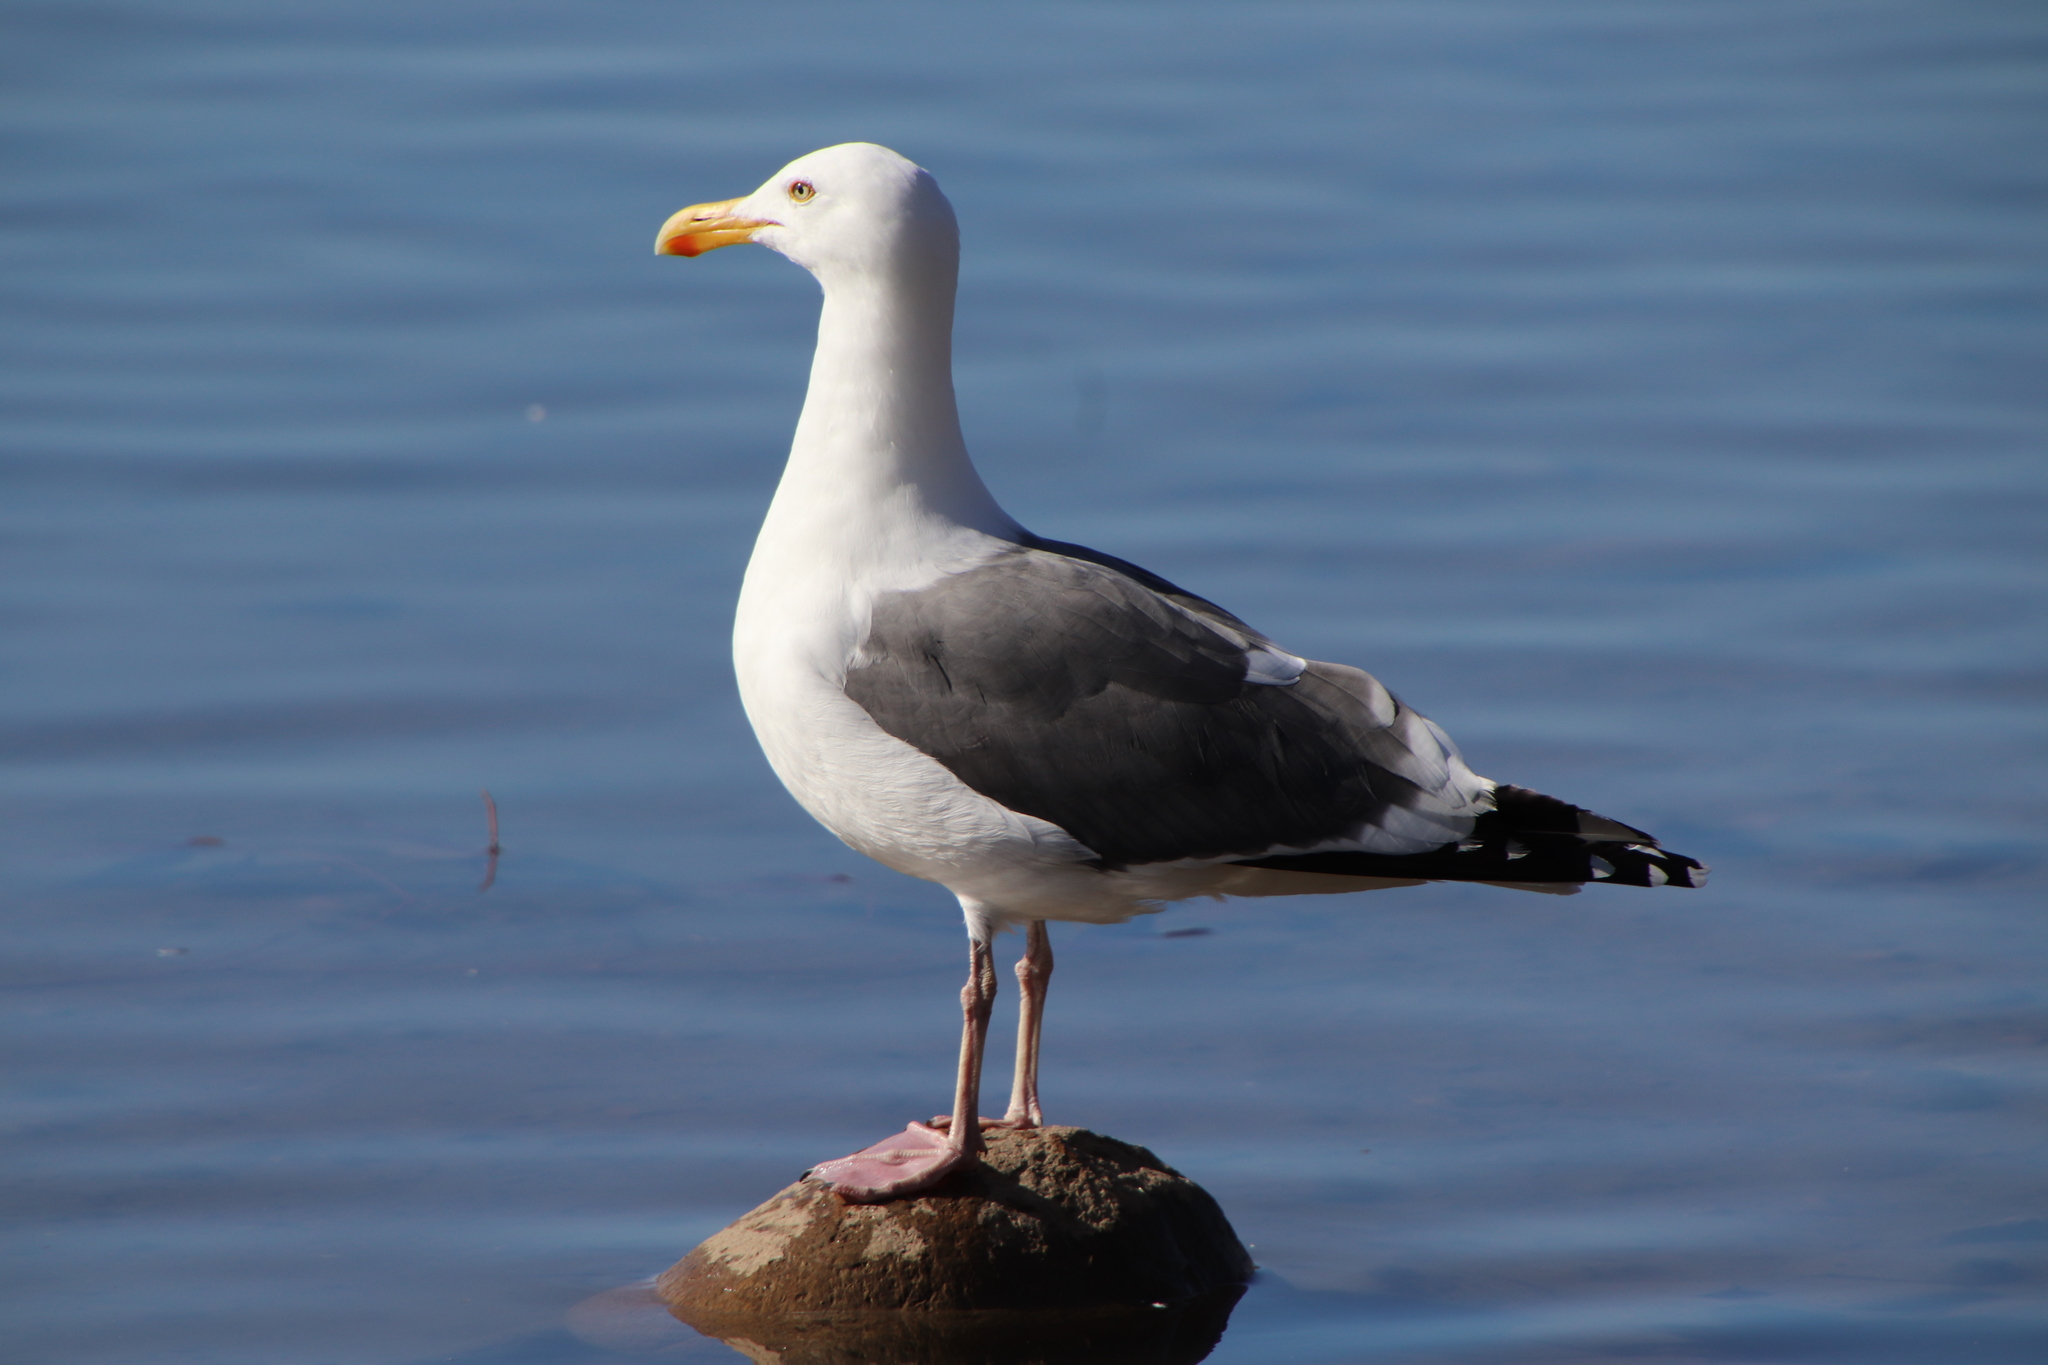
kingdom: Animalia
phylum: Chordata
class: Aves
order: Charadriiformes
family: Laridae
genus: Larus
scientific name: Larus occidentalis
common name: Western gull
